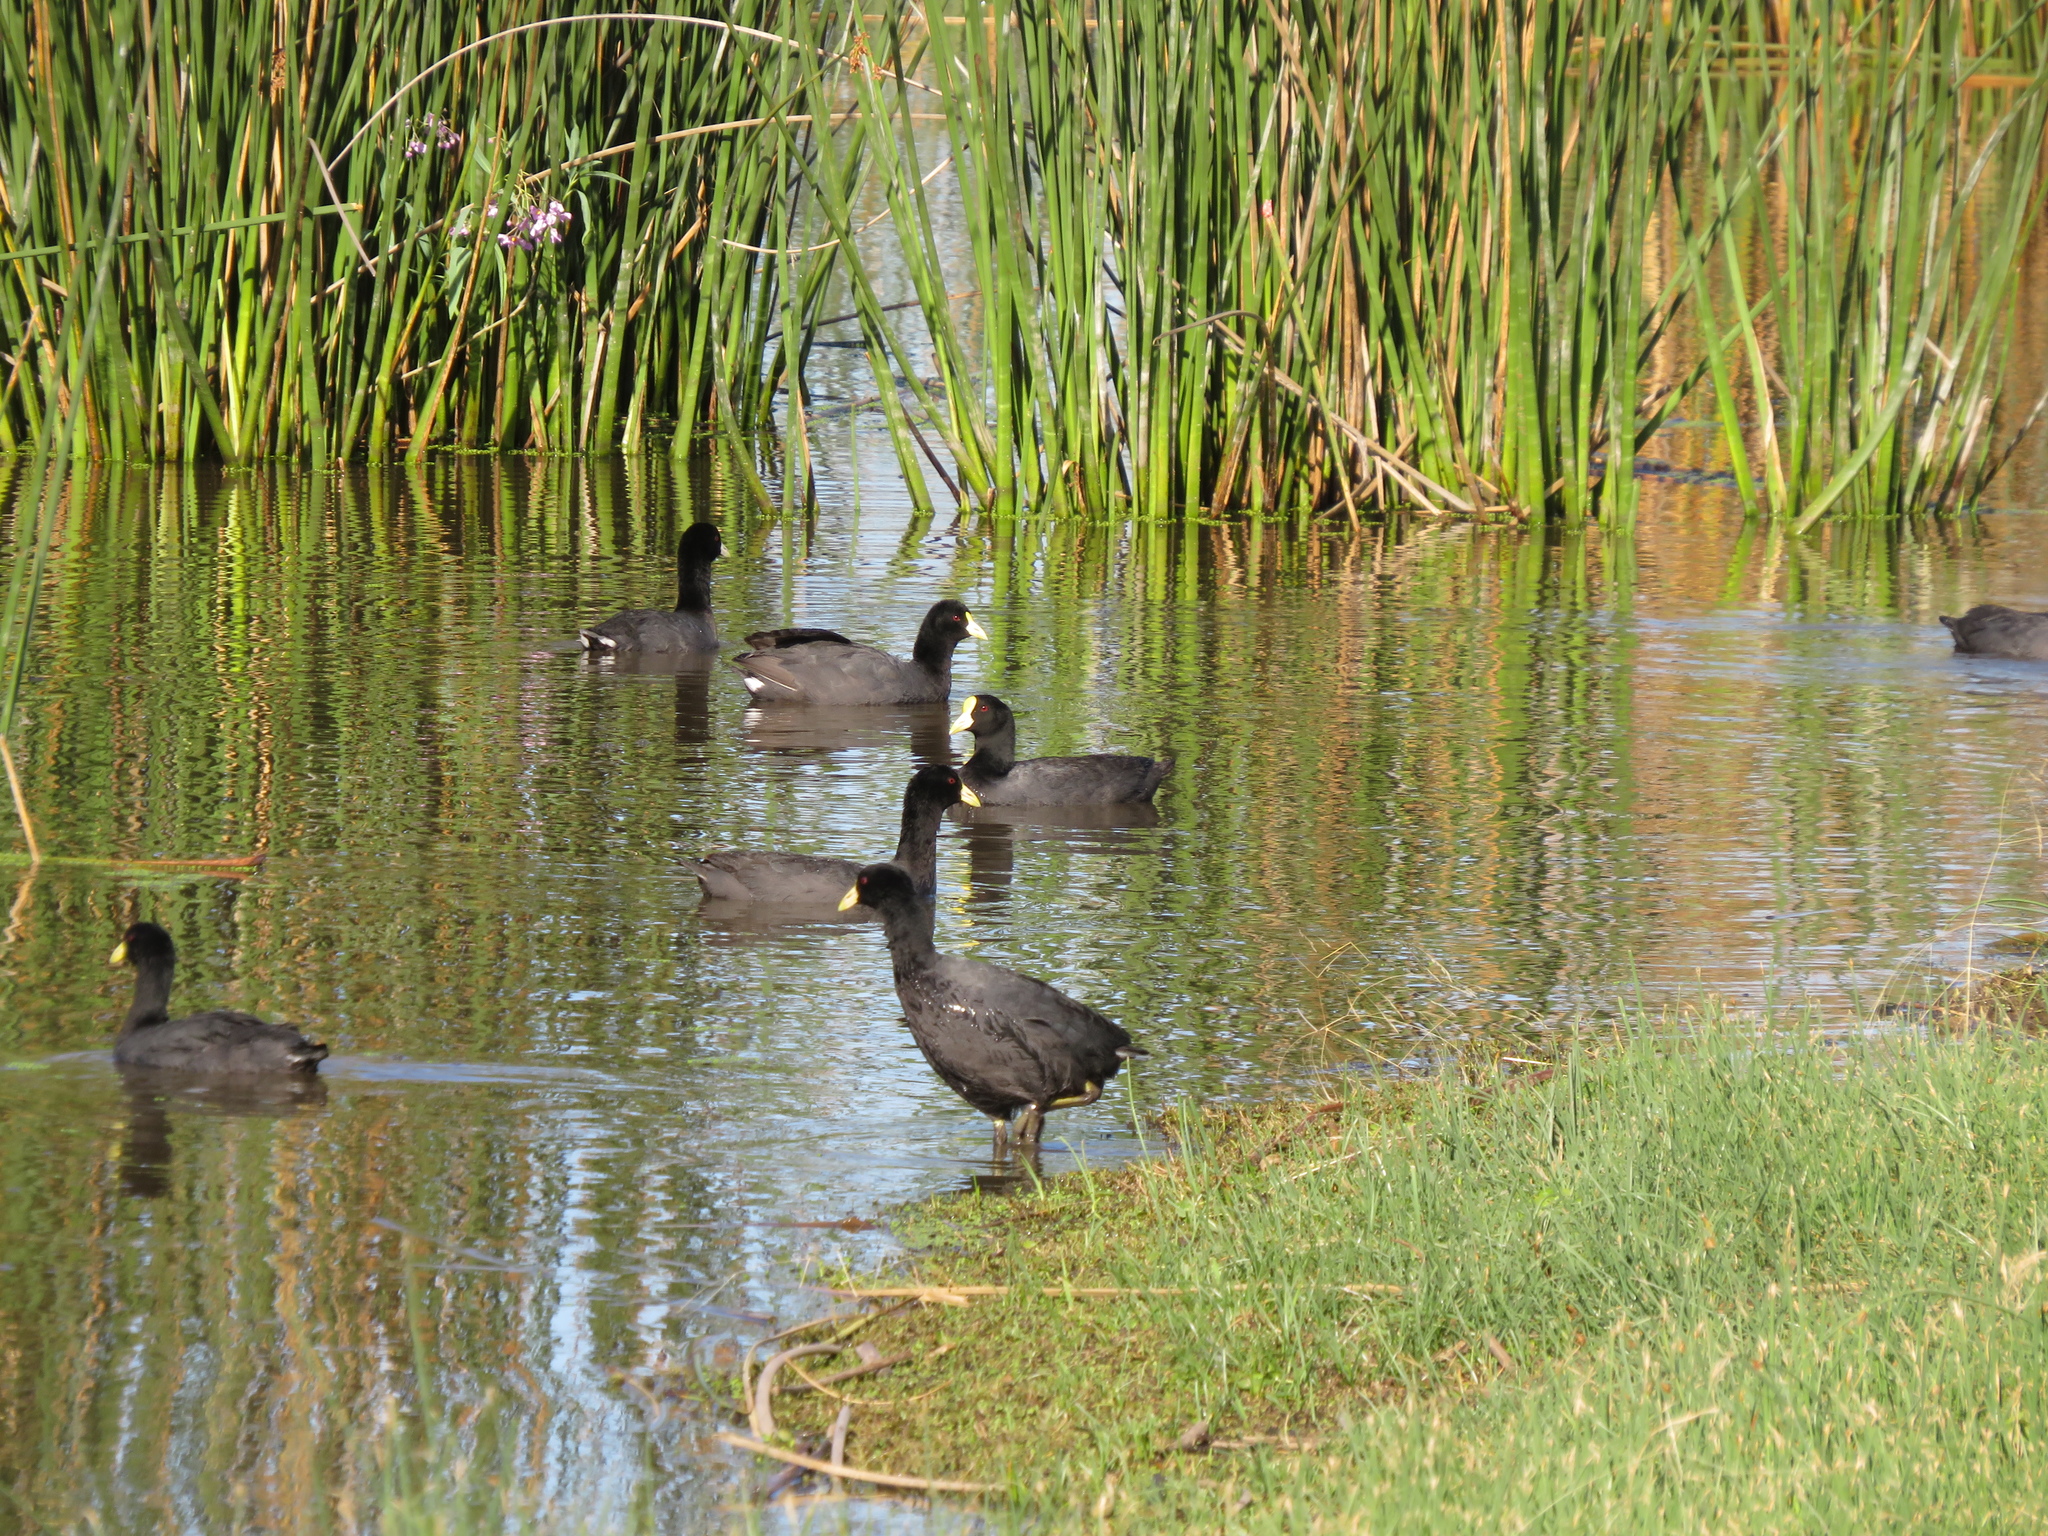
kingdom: Animalia
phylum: Chordata
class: Aves
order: Gruiformes
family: Rallidae
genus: Fulica
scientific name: Fulica leucoptera
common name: White-winged coot
